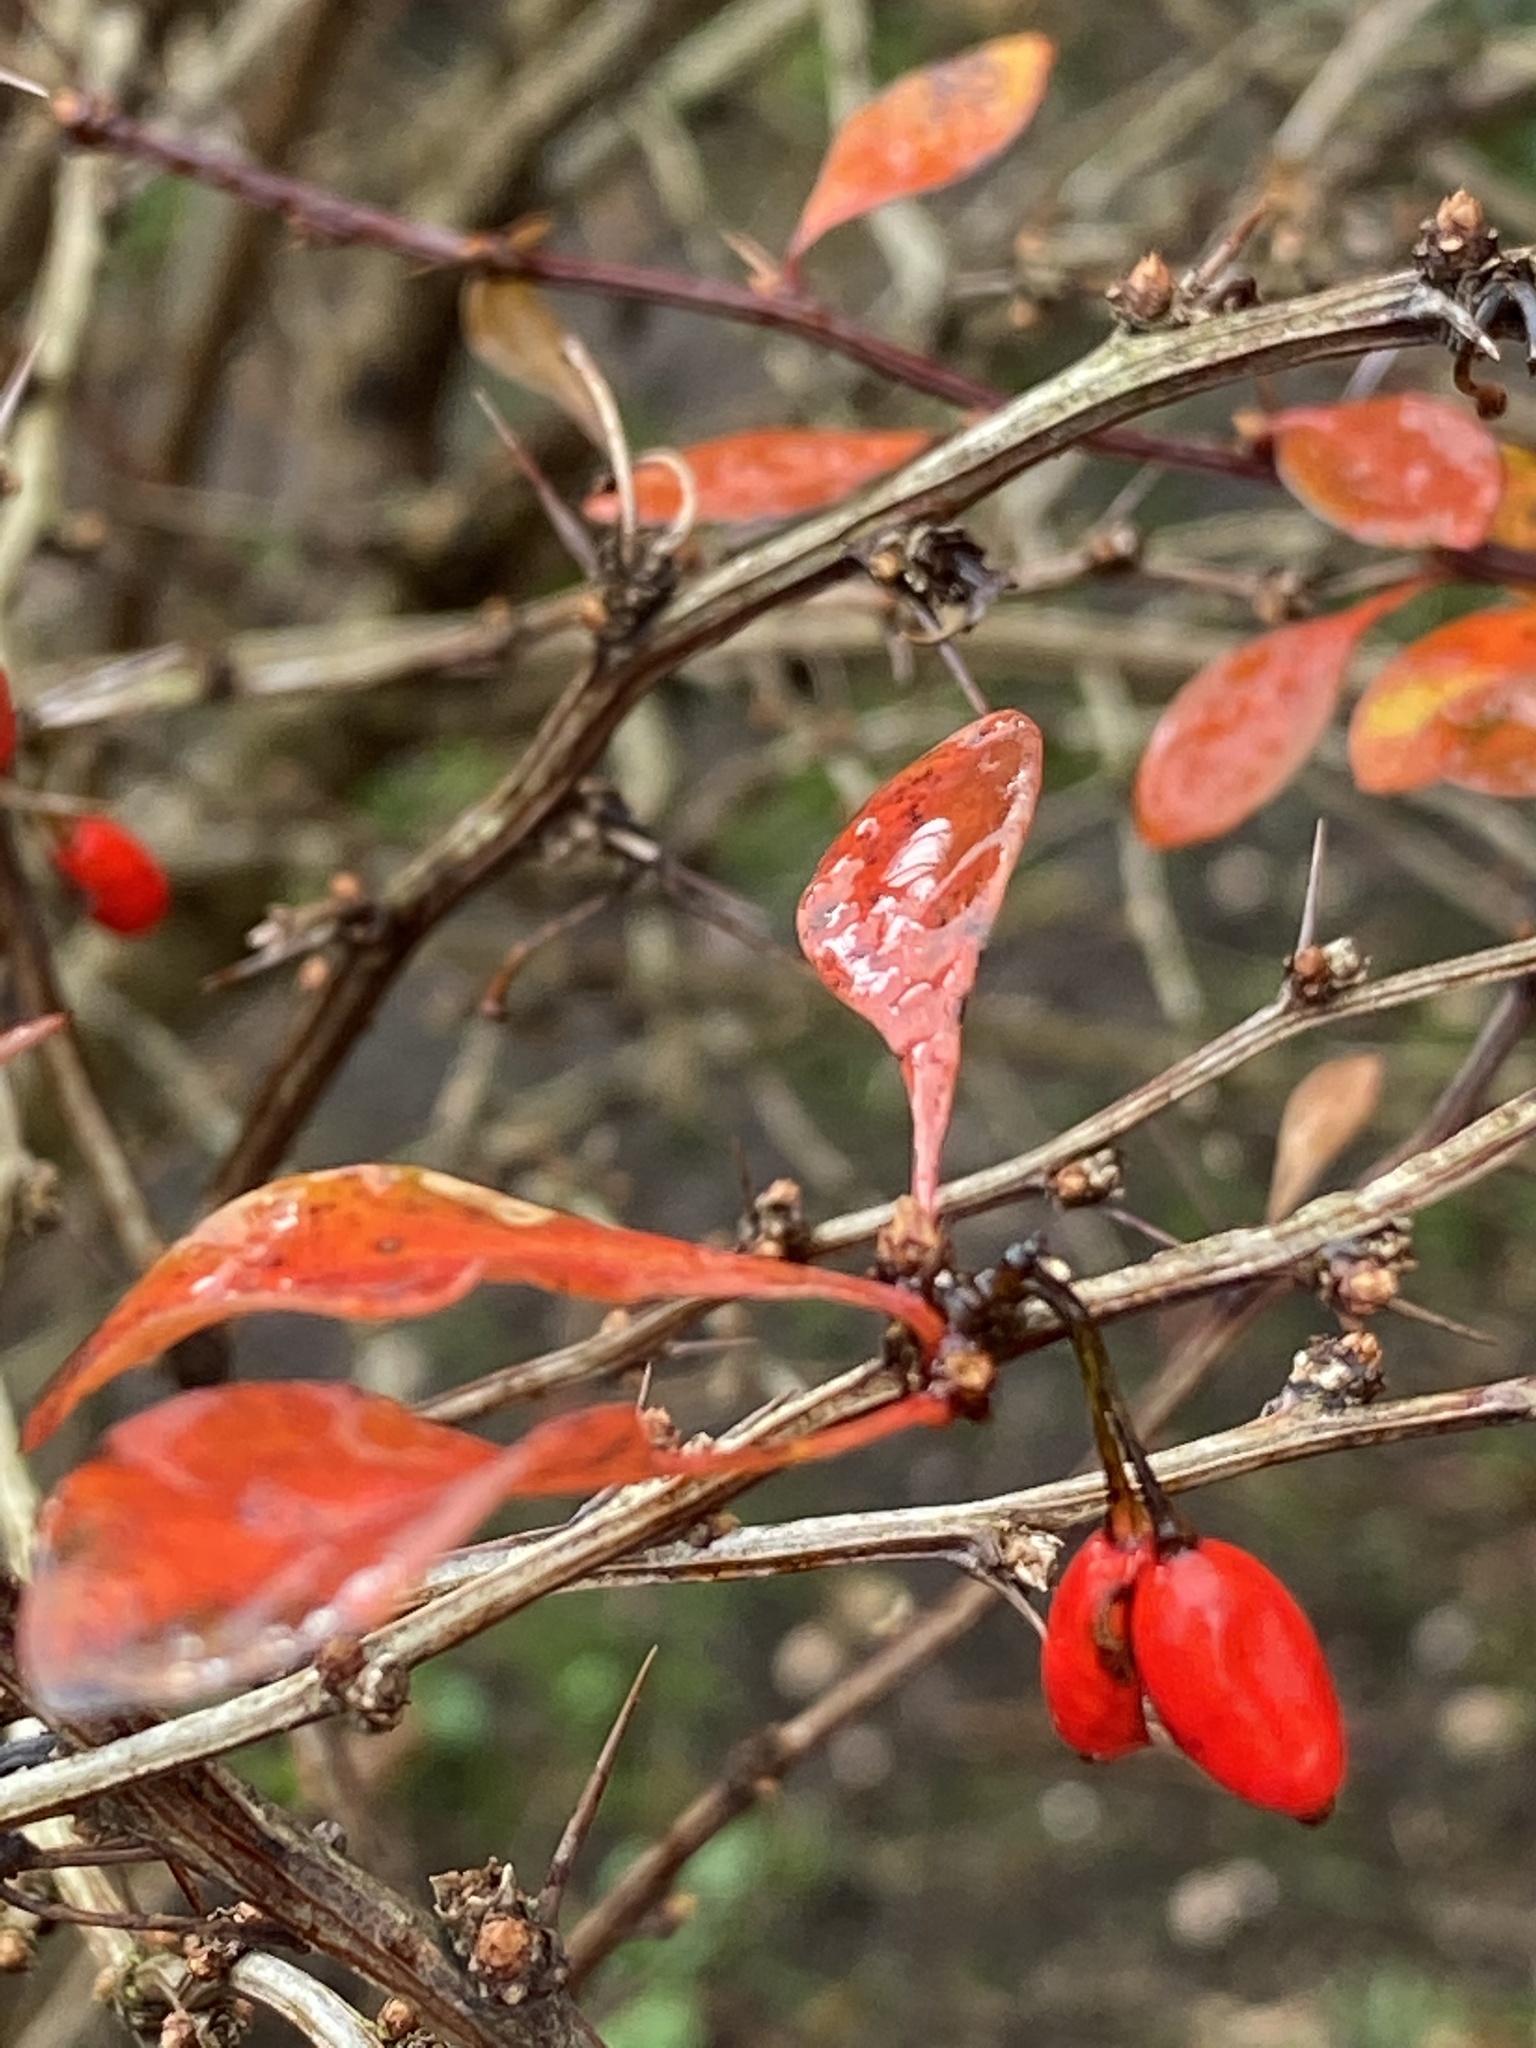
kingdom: Plantae
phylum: Tracheophyta
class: Magnoliopsida
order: Ranunculales
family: Berberidaceae
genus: Berberis
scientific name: Berberis thunbergii
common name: Japanese barberry
